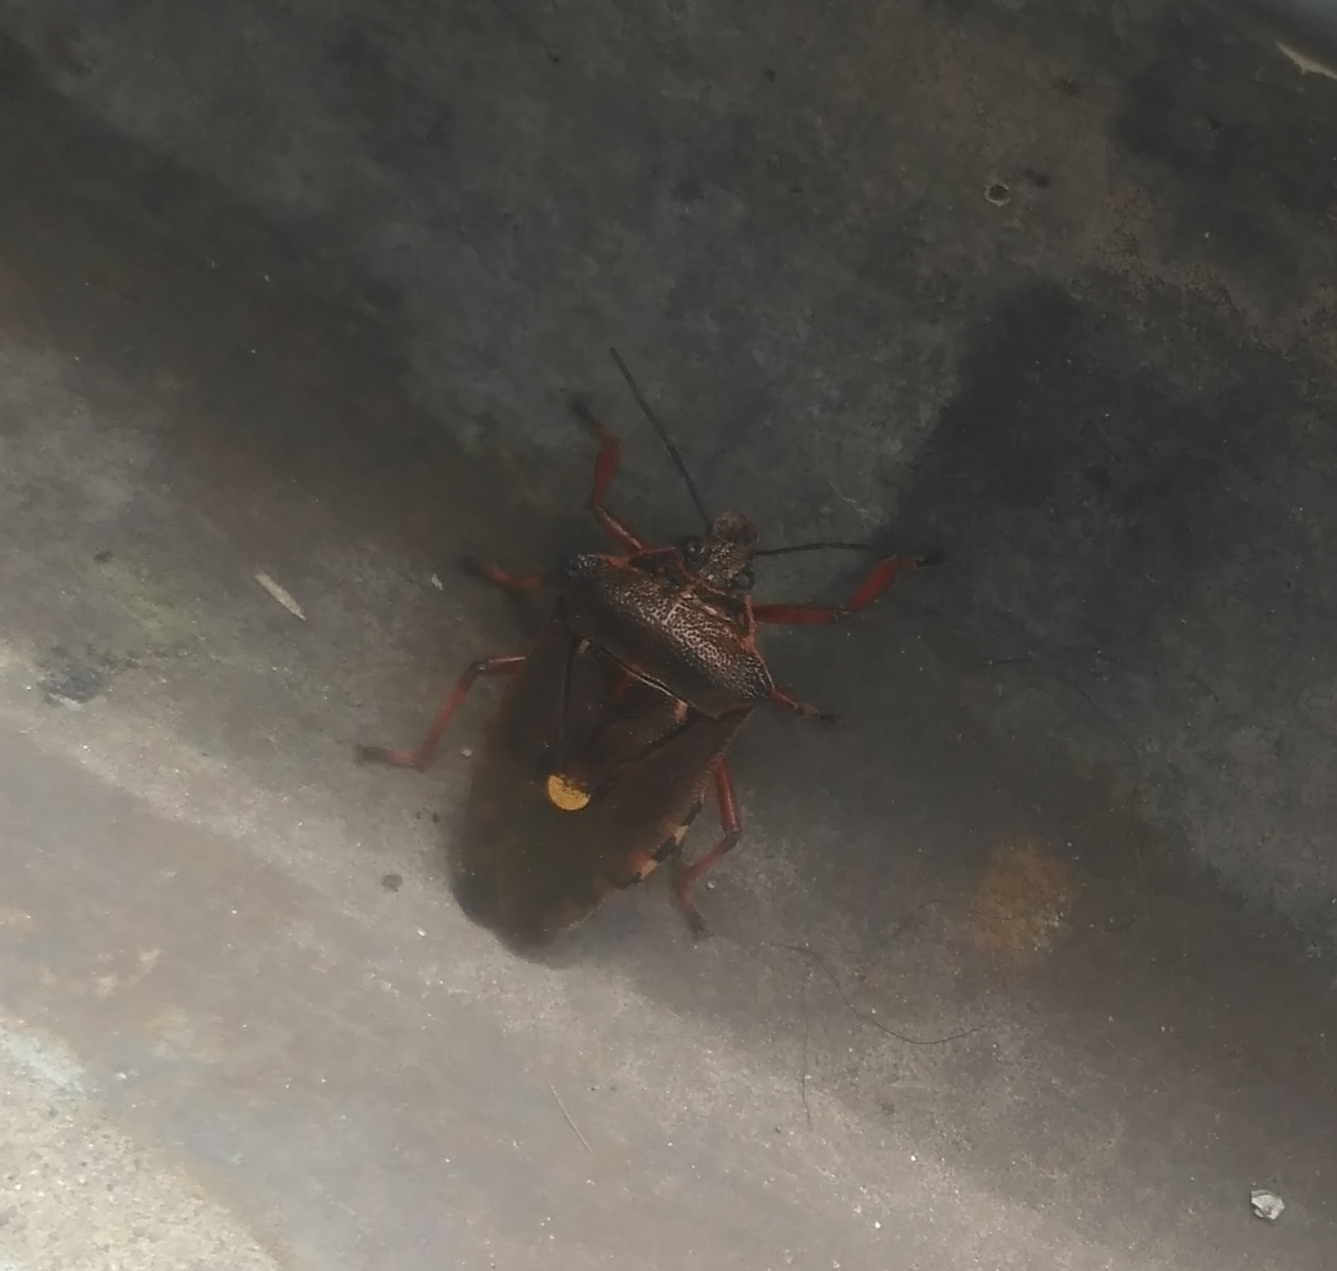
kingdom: Animalia
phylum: Arthropoda
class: Insecta
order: Hemiptera
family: Pentatomidae
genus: Pinthaeus
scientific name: Pinthaeus sanguinipes
